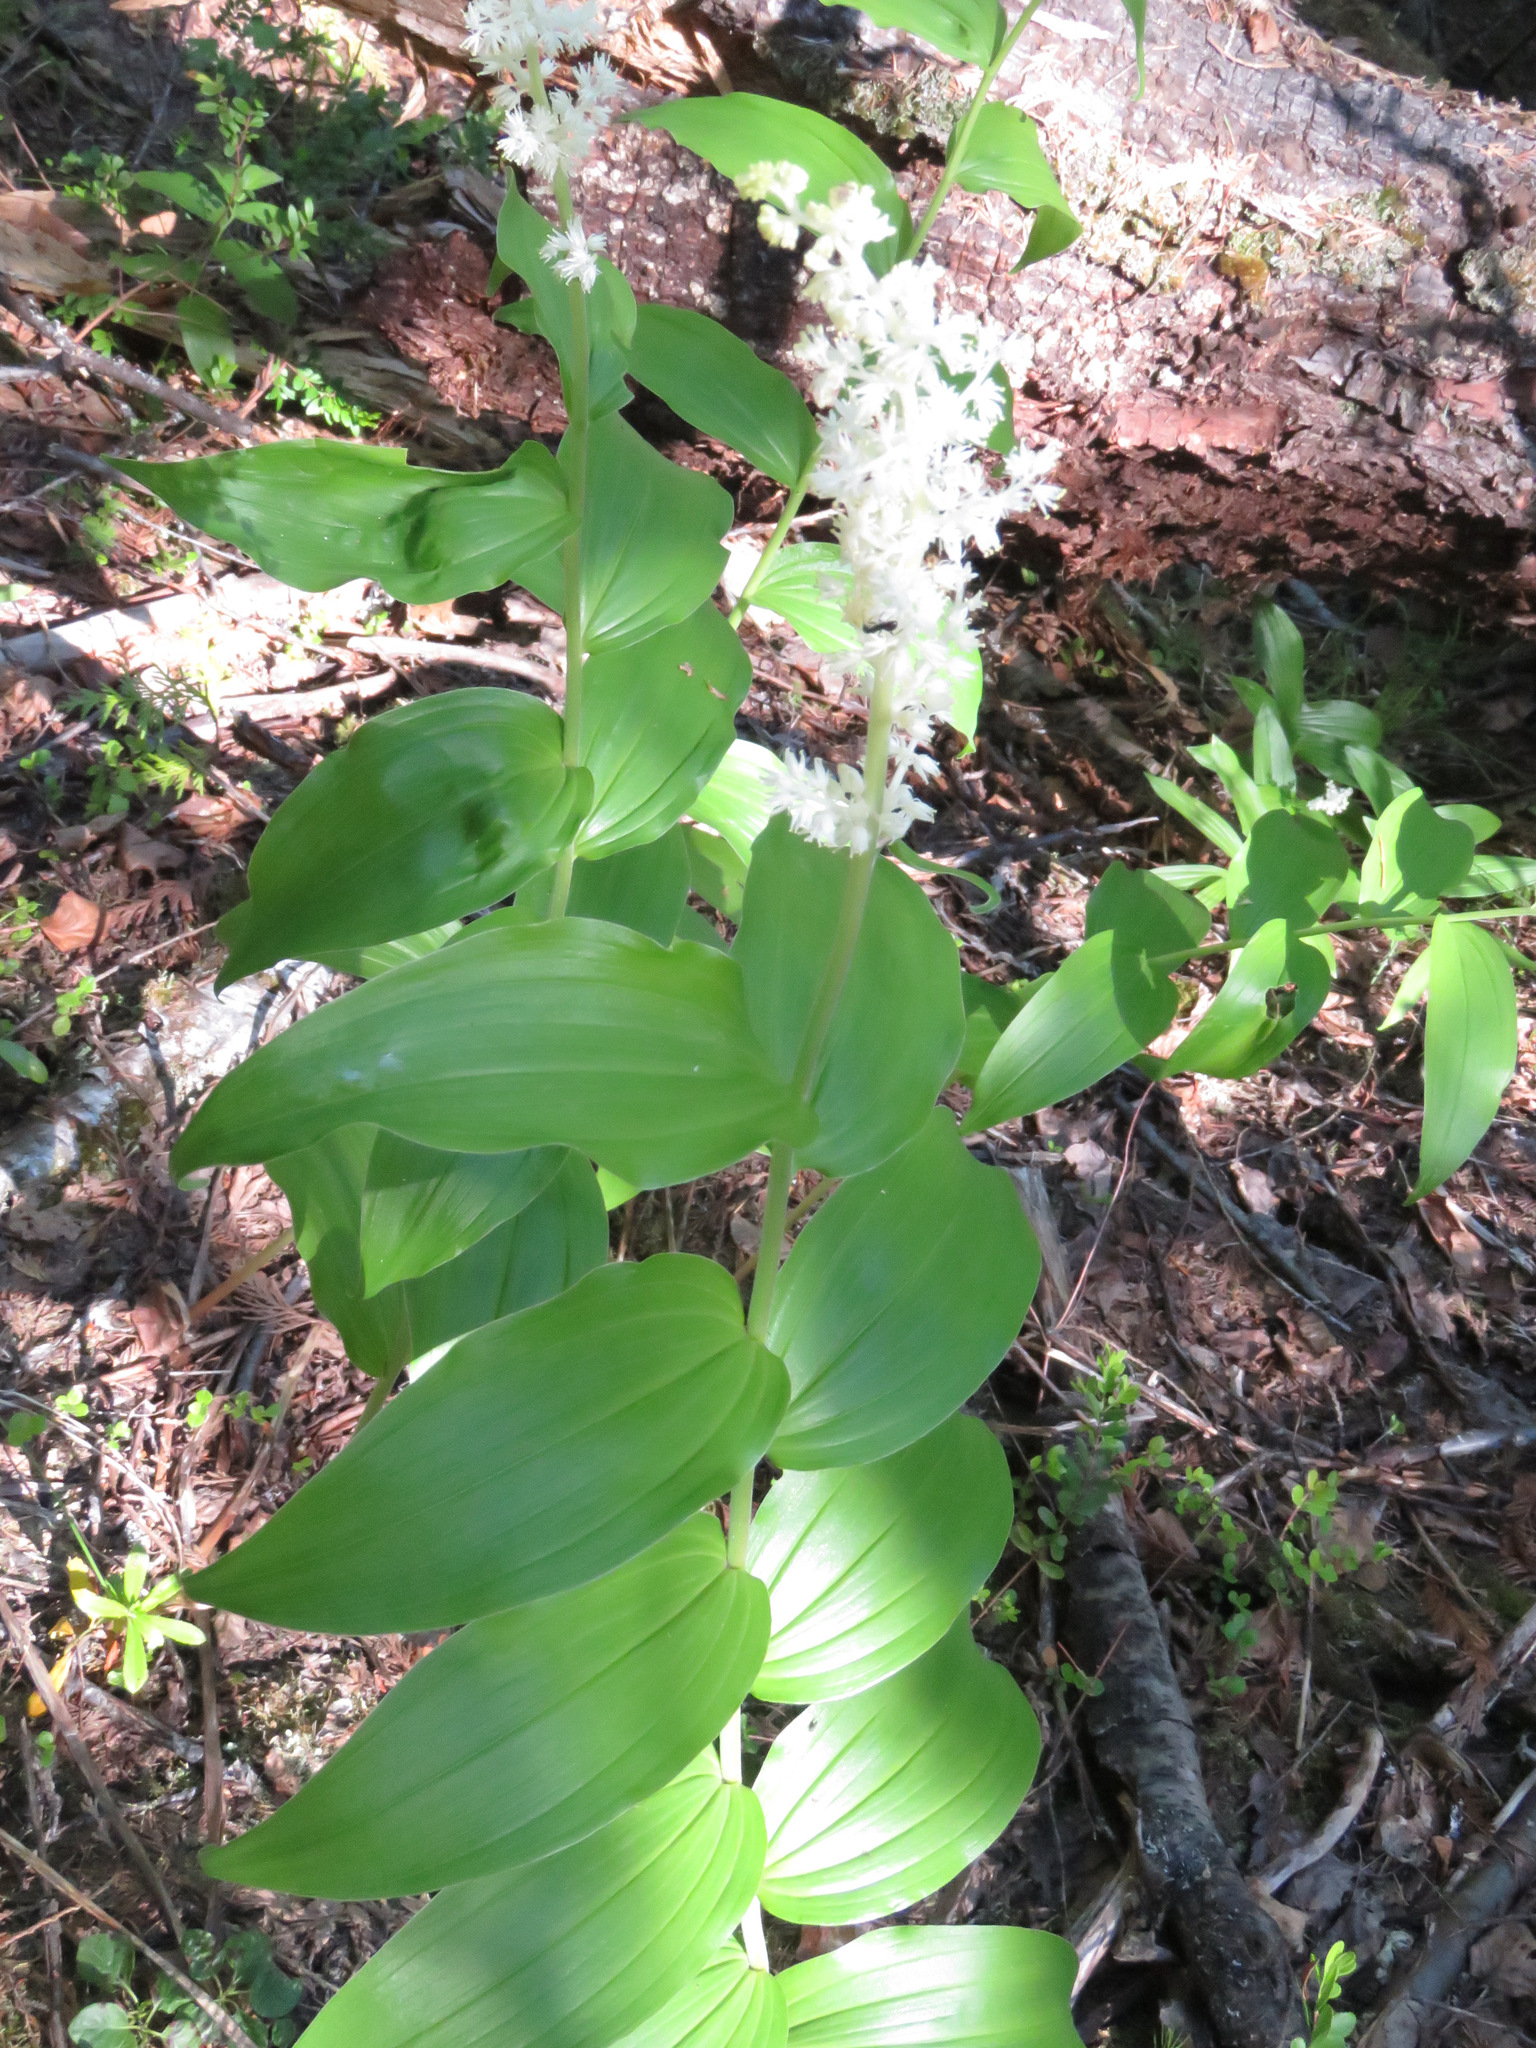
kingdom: Plantae
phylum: Tracheophyta
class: Liliopsida
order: Asparagales
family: Asparagaceae
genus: Maianthemum
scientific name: Maianthemum racemosum
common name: False spikenard
